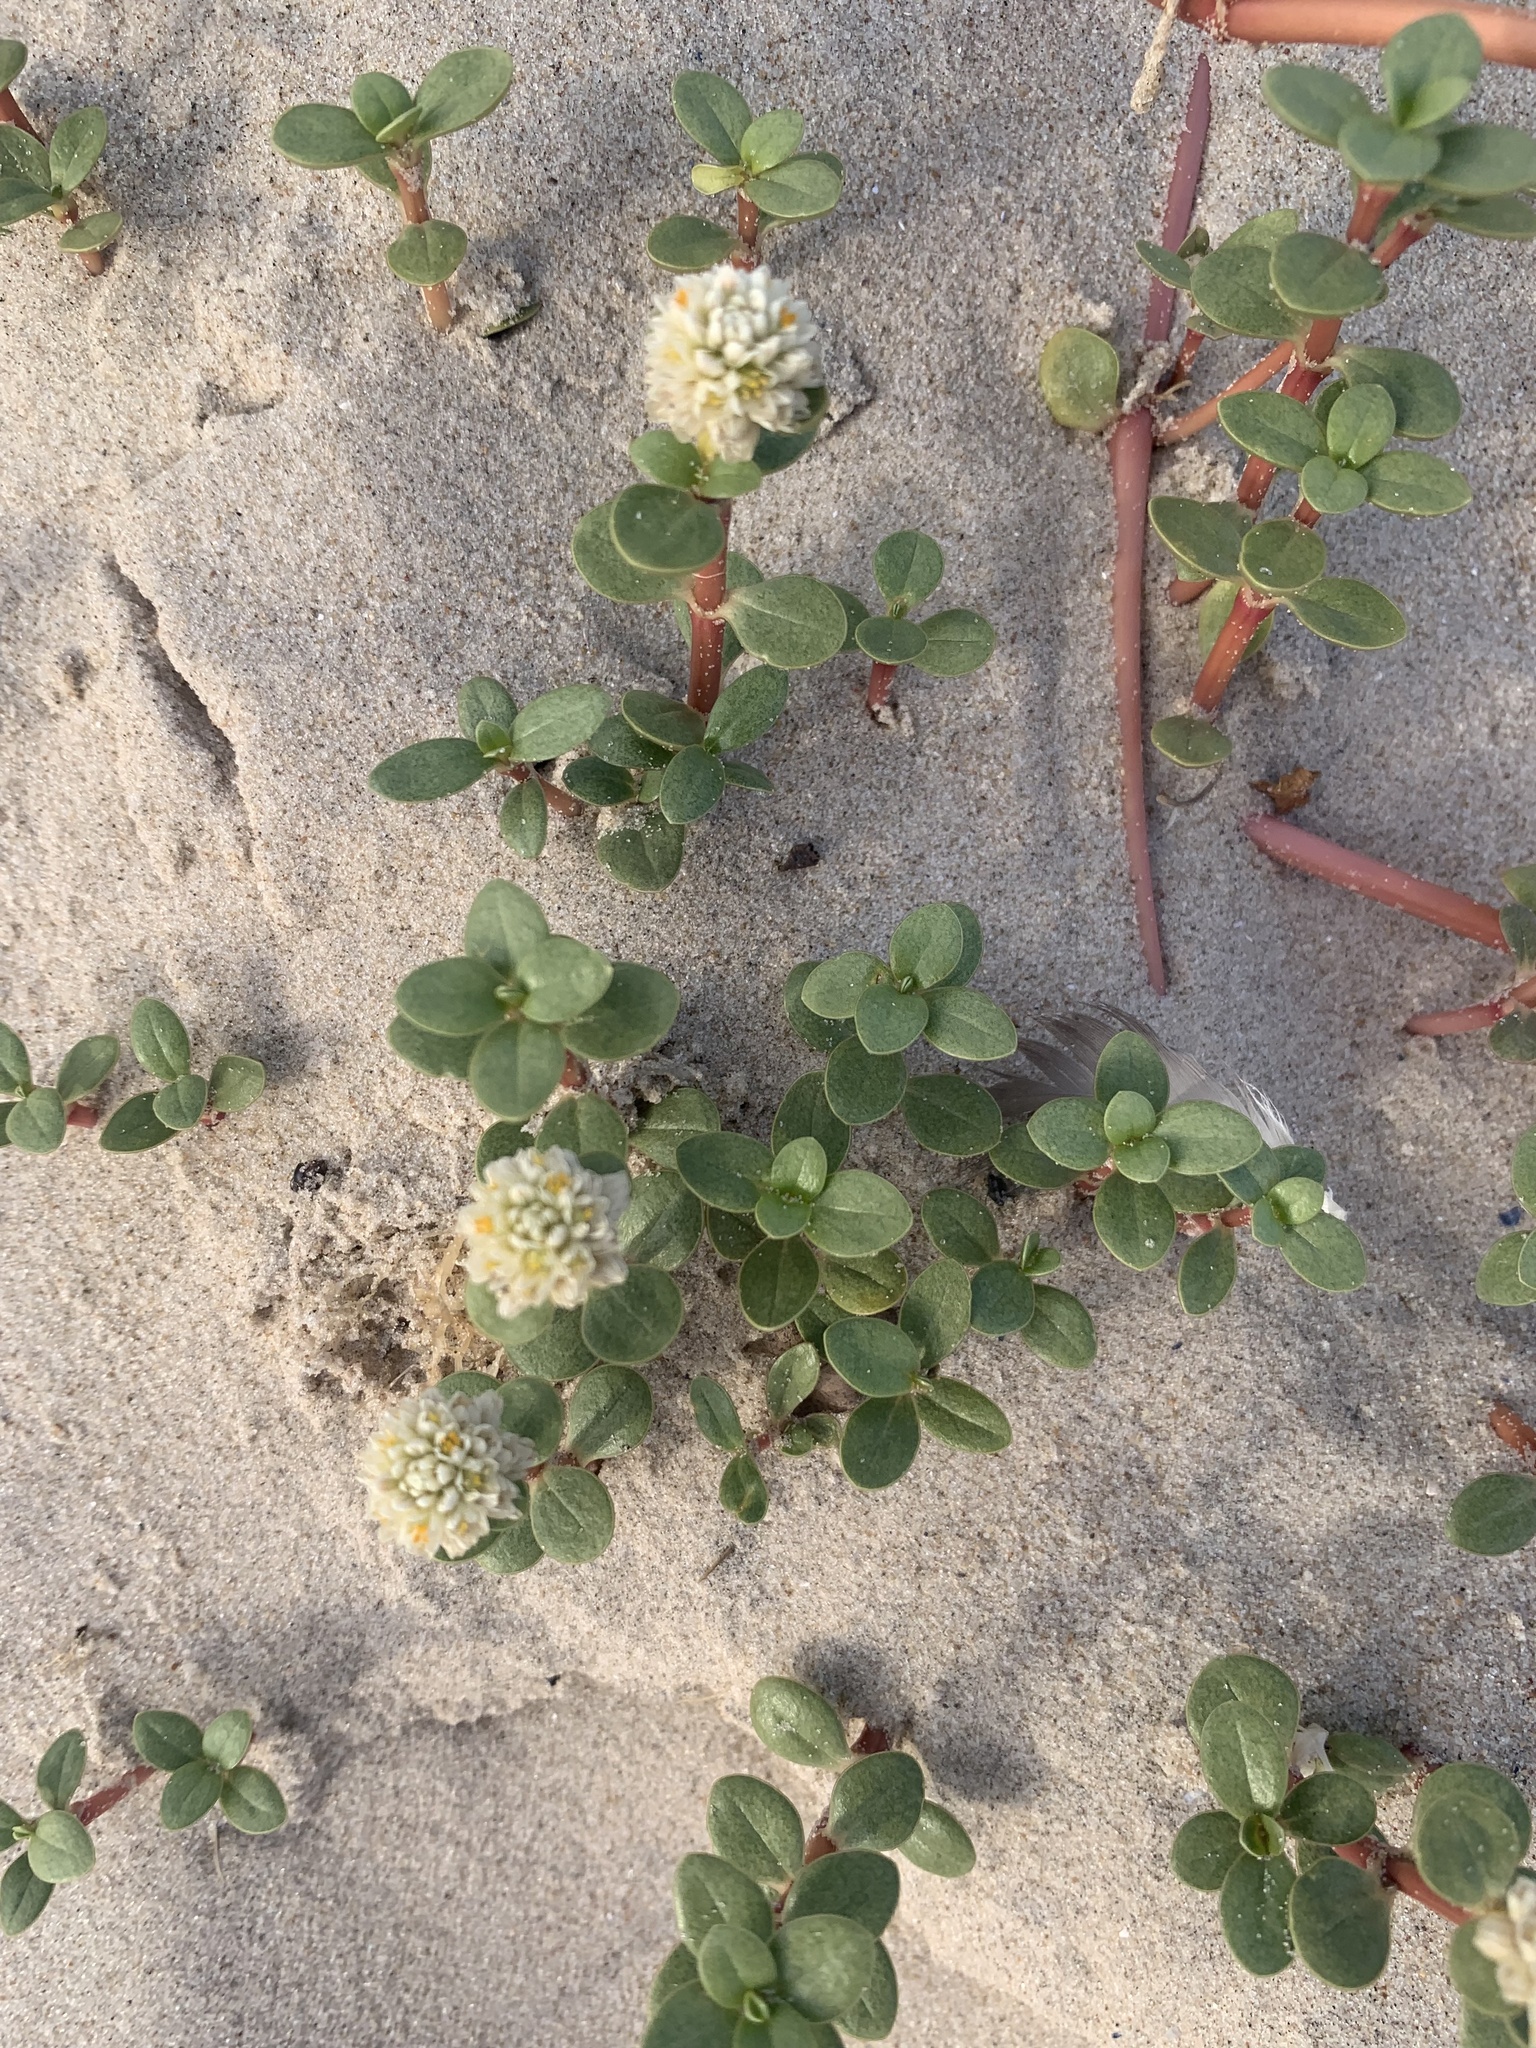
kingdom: Plantae
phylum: Tracheophyta
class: Magnoliopsida
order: Caryophyllales
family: Amaranthaceae
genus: Gomphrena
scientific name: Gomphrena portulacoides
